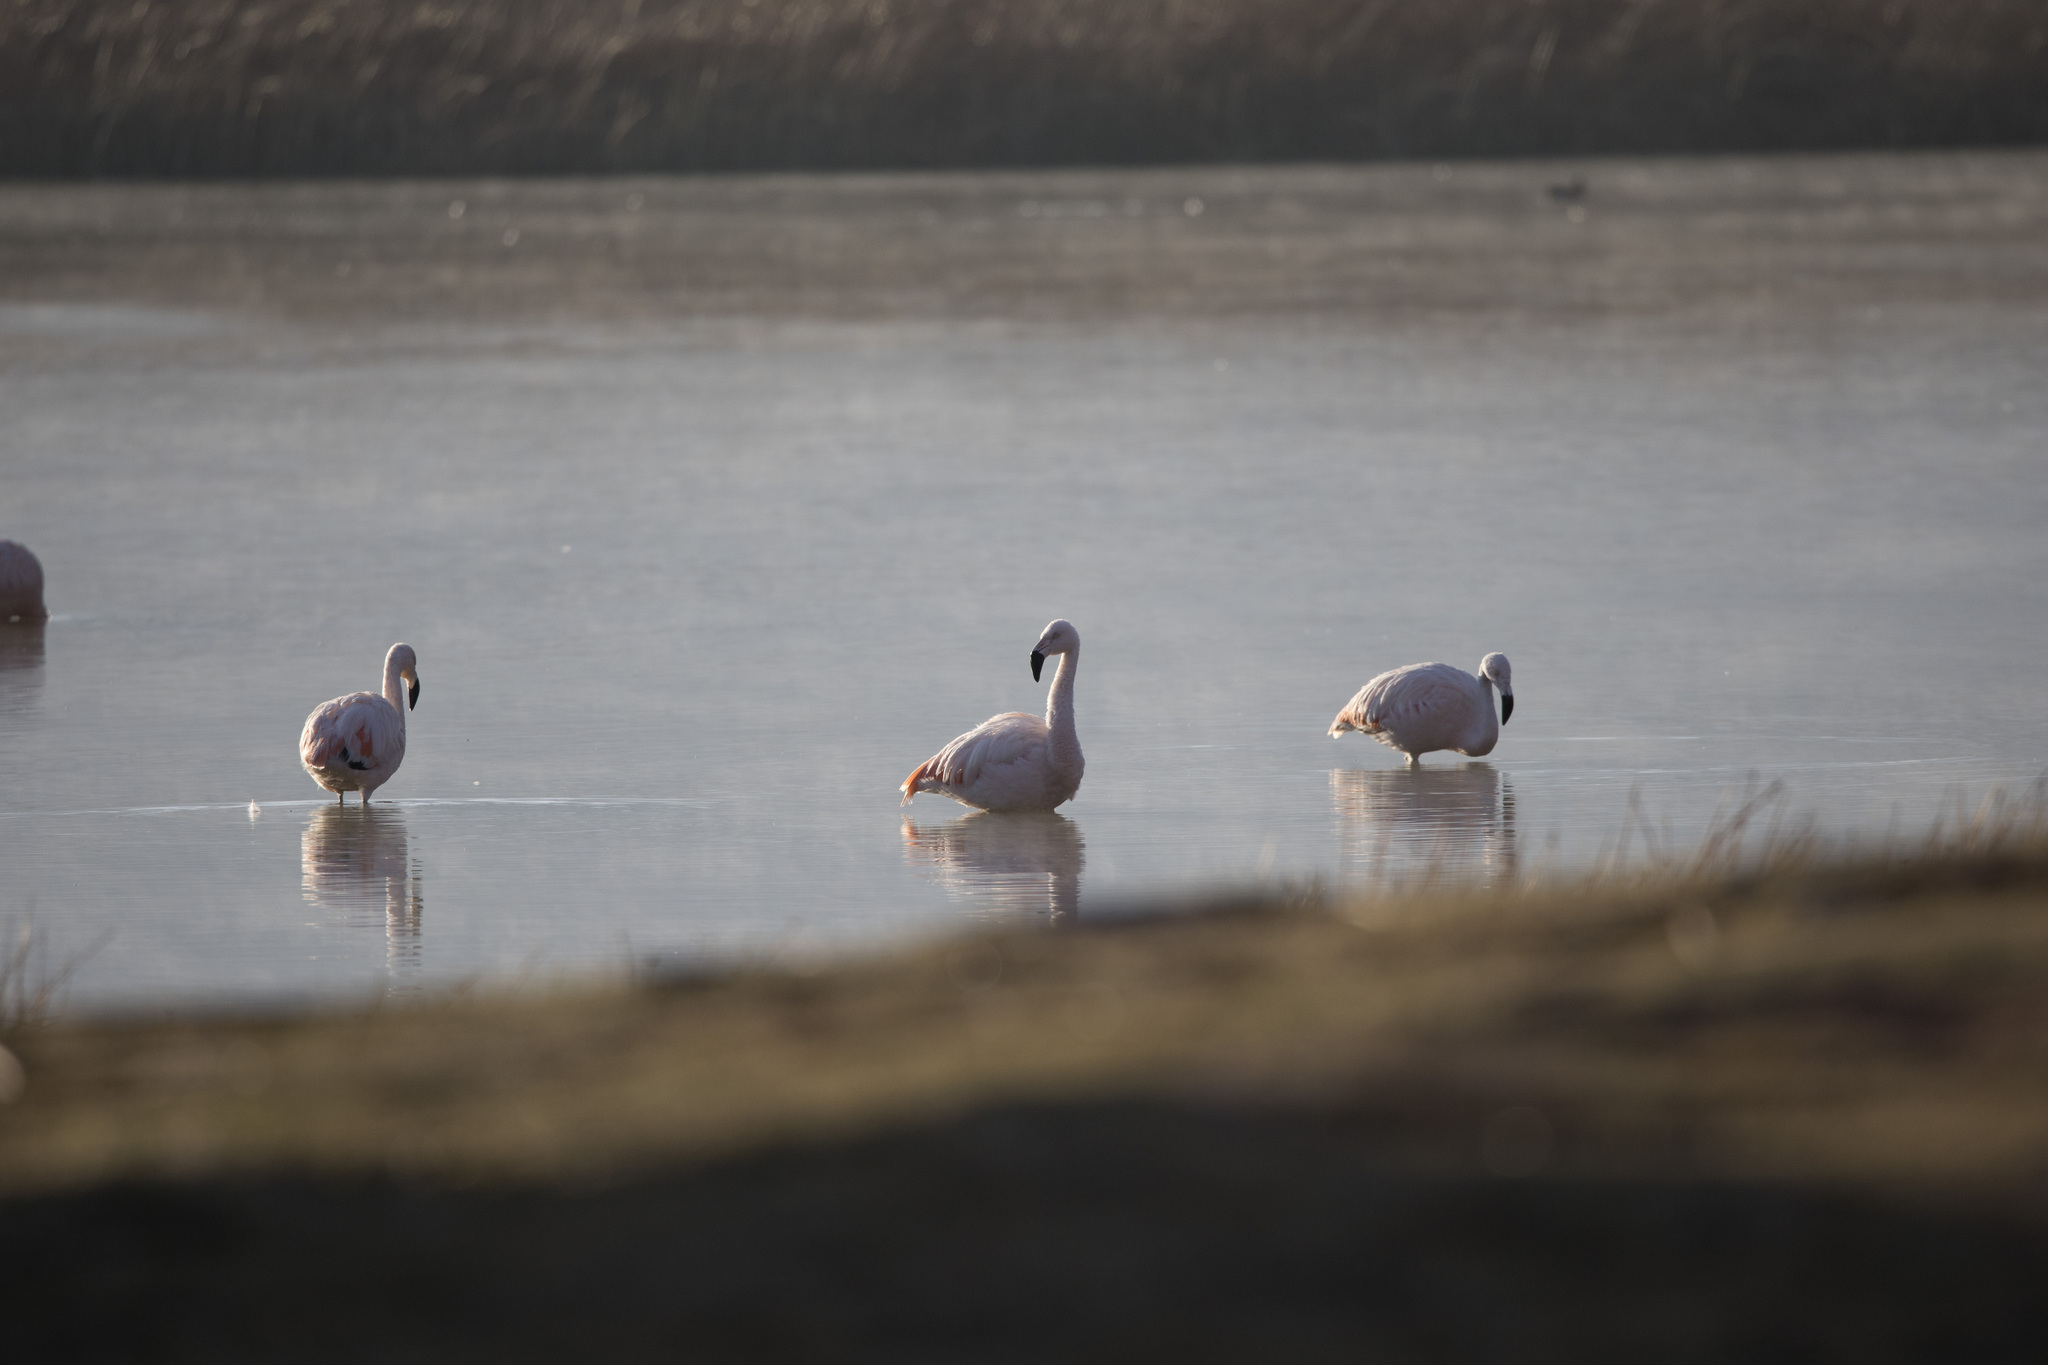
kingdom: Animalia
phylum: Chordata
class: Aves
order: Phoenicopteriformes
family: Phoenicopteridae
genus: Phoenicopterus
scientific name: Phoenicopterus chilensis
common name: Chilean flamingo
